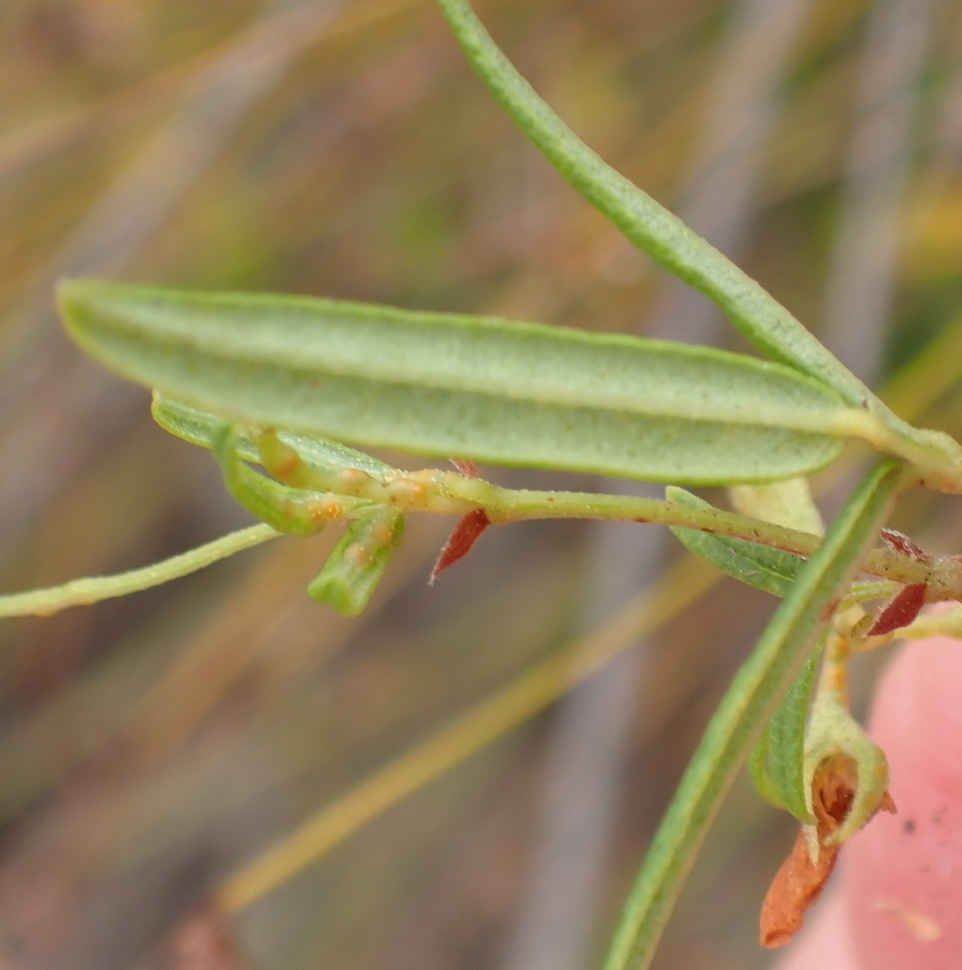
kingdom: Plantae
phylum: Tracheophyta
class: Magnoliopsida
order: Fabales
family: Fabaceae
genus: Rhynchosia
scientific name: Rhynchosia leucoscias
